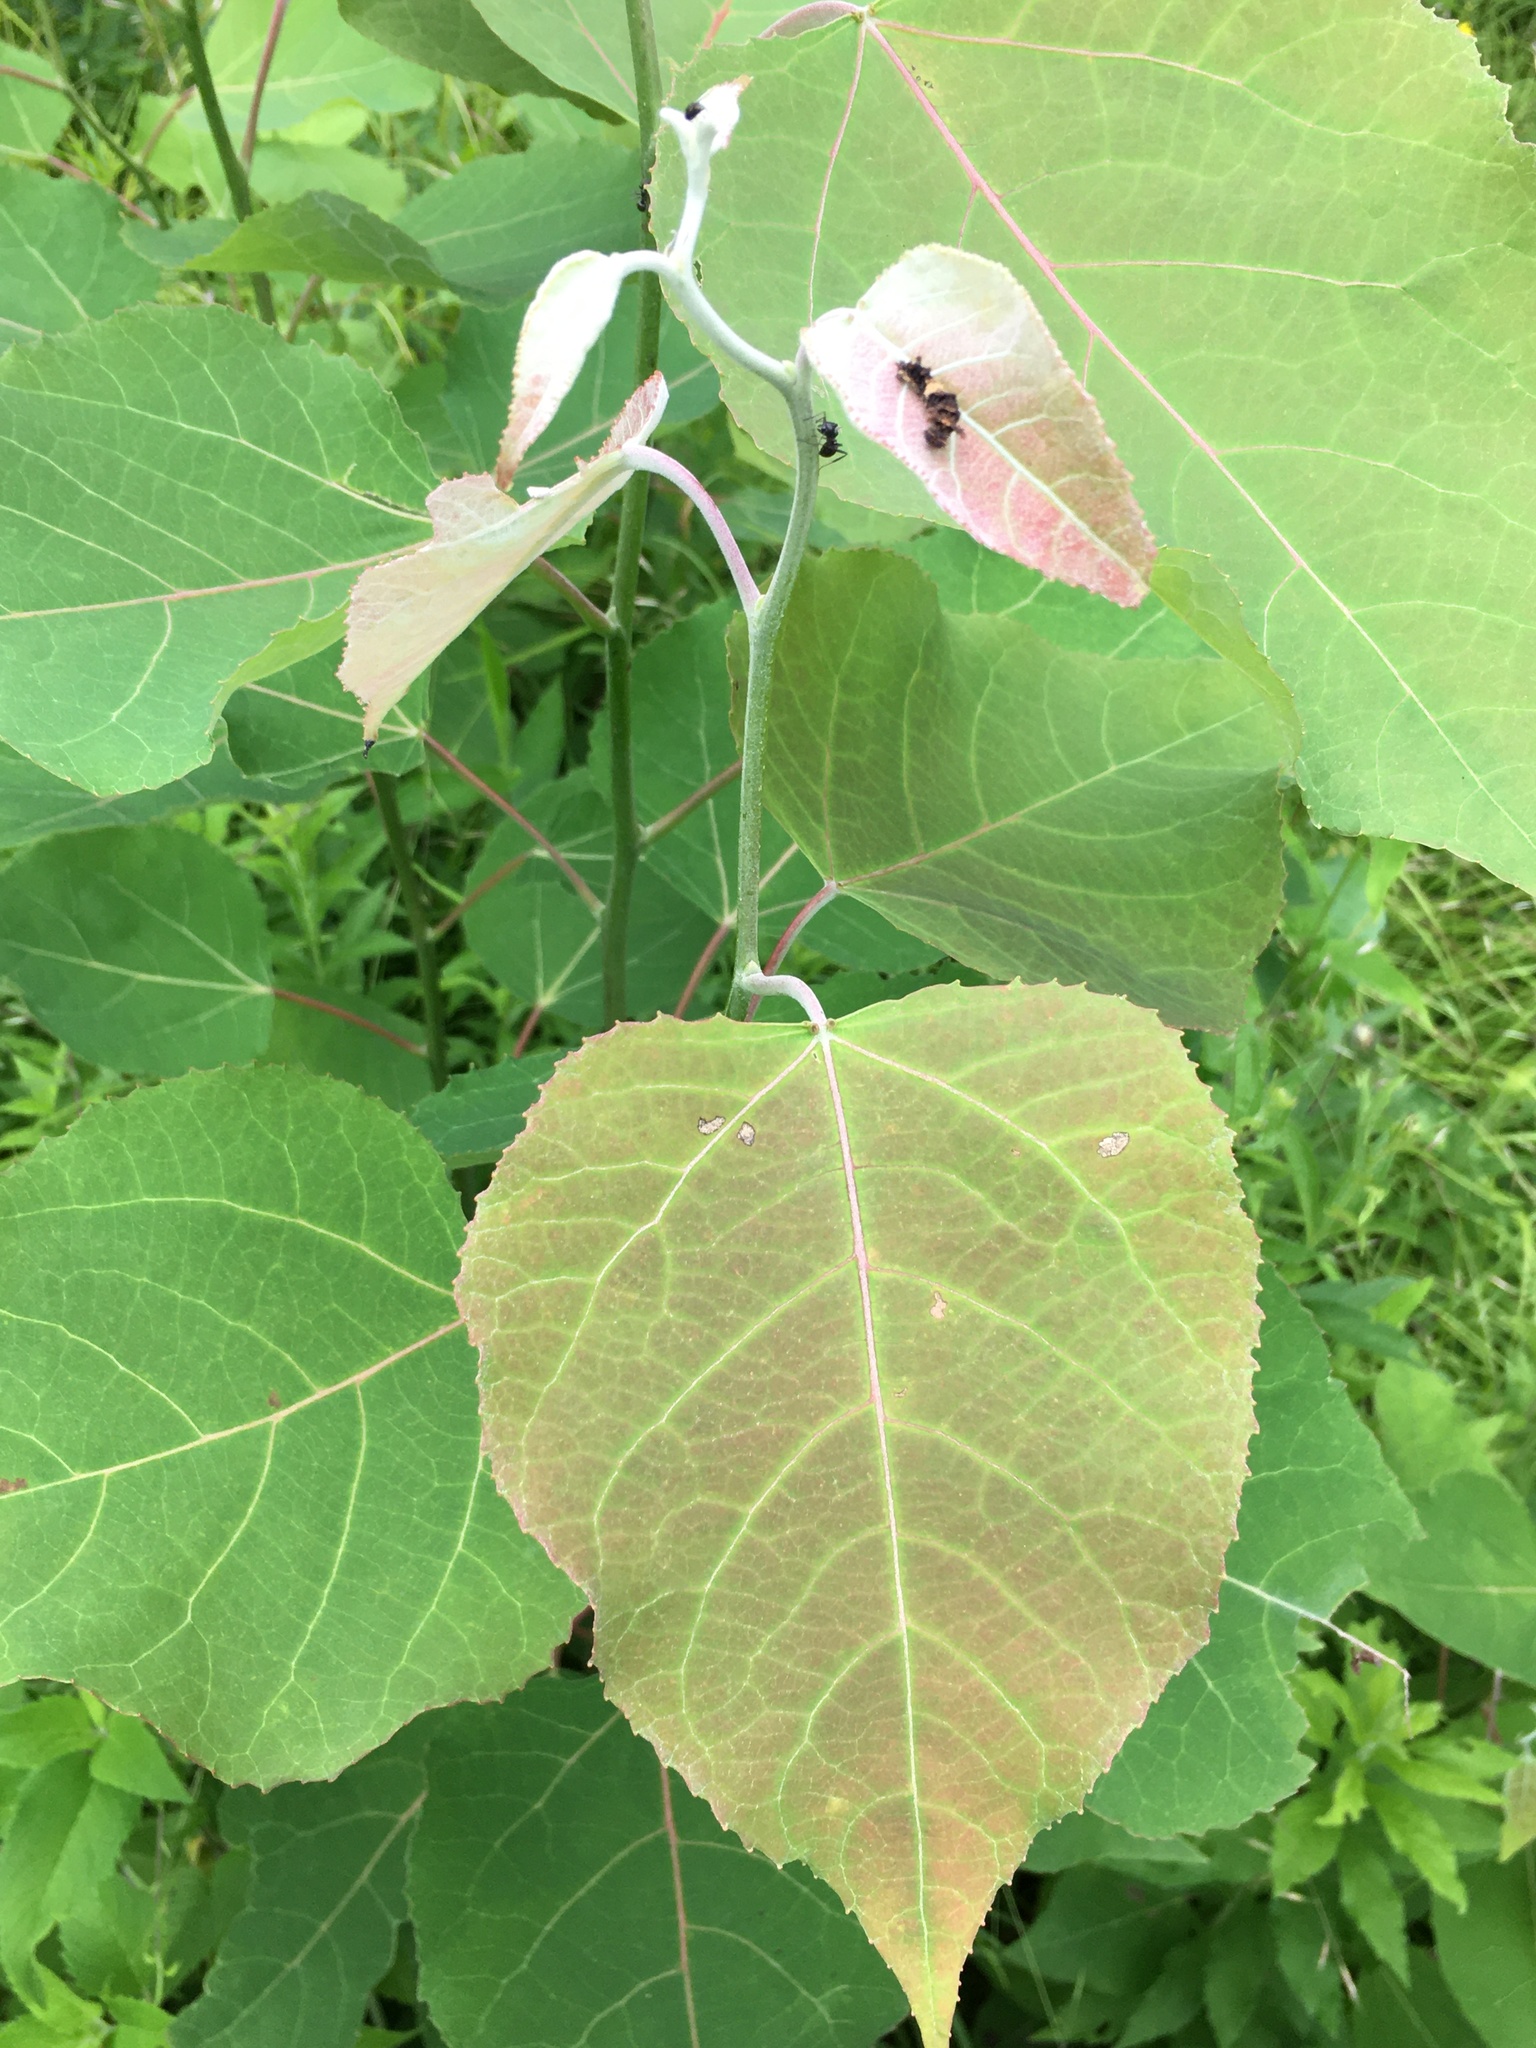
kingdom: Animalia
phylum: Arthropoda
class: Insecta
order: Lepidoptera
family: Nymphalidae
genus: Limenitis
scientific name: Limenitis archippus
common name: Viceroy
